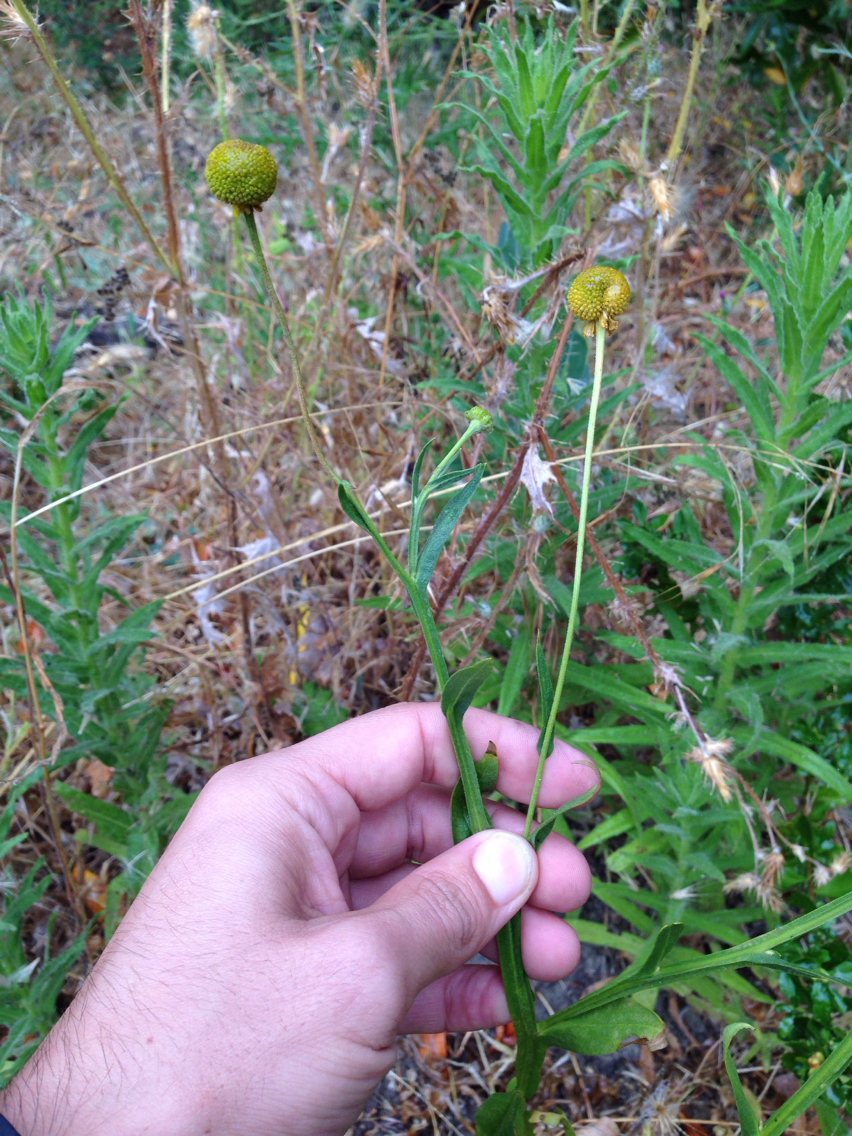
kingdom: Plantae
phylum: Tracheophyta
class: Magnoliopsida
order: Asterales
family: Asteraceae
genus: Helenium
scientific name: Helenium puberulum
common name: Sneezewort
